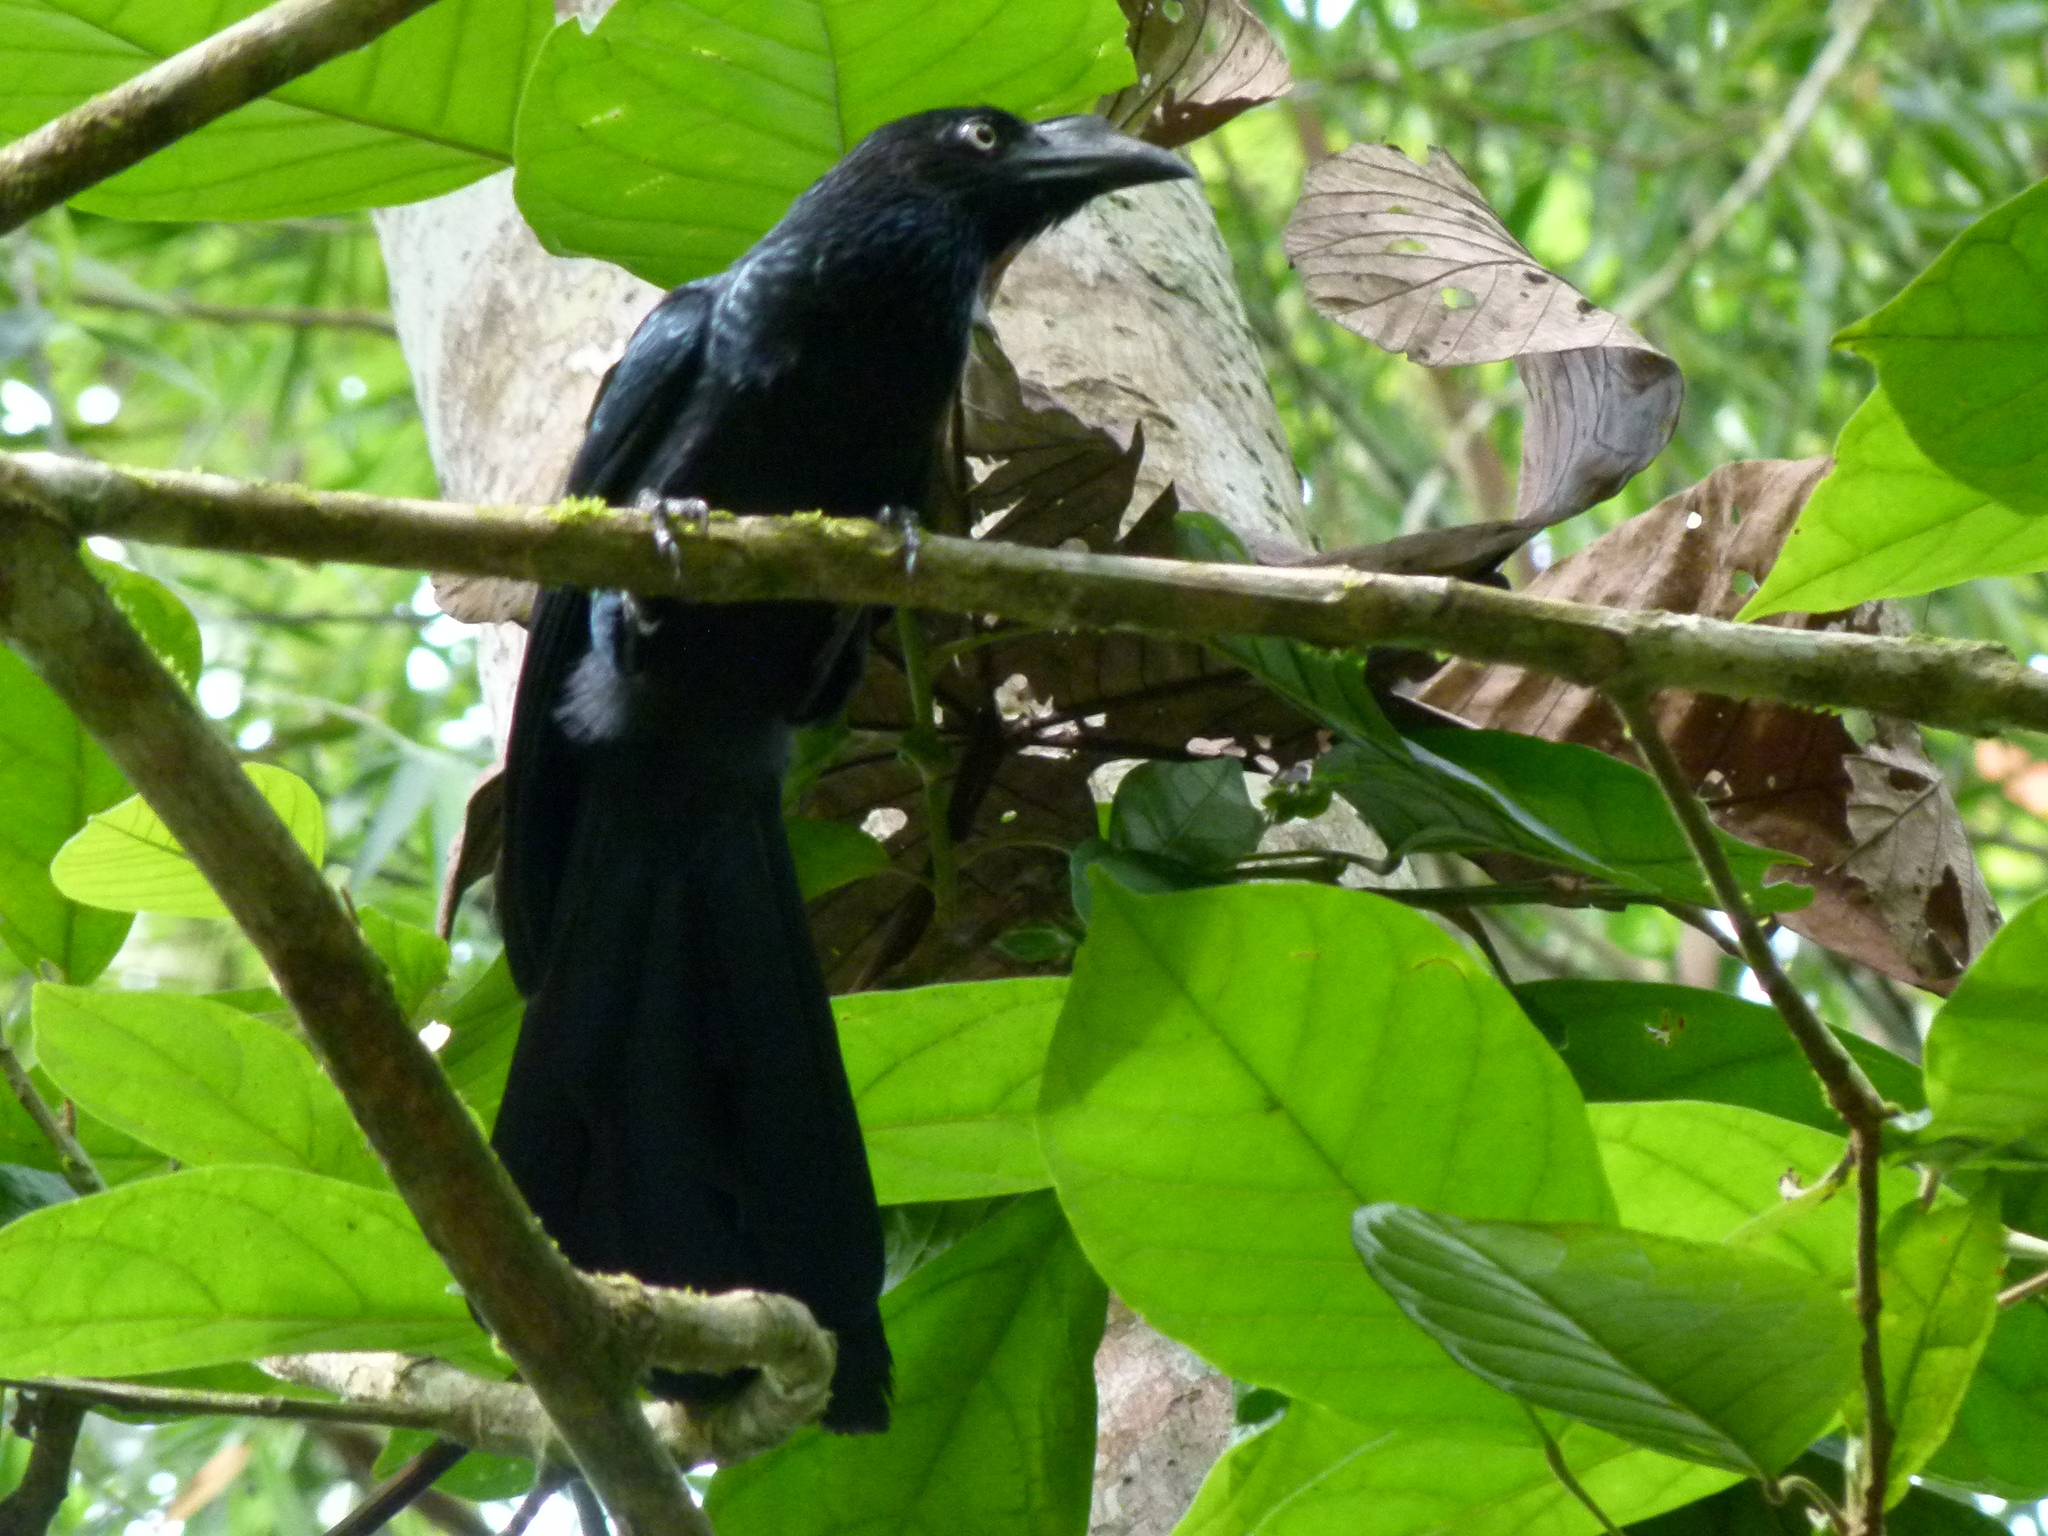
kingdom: Animalia
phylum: Chordata
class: Aves
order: Cuculiformes
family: Cuculidae
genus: Crotophaga
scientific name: Crotophaga major
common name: Greater ani
